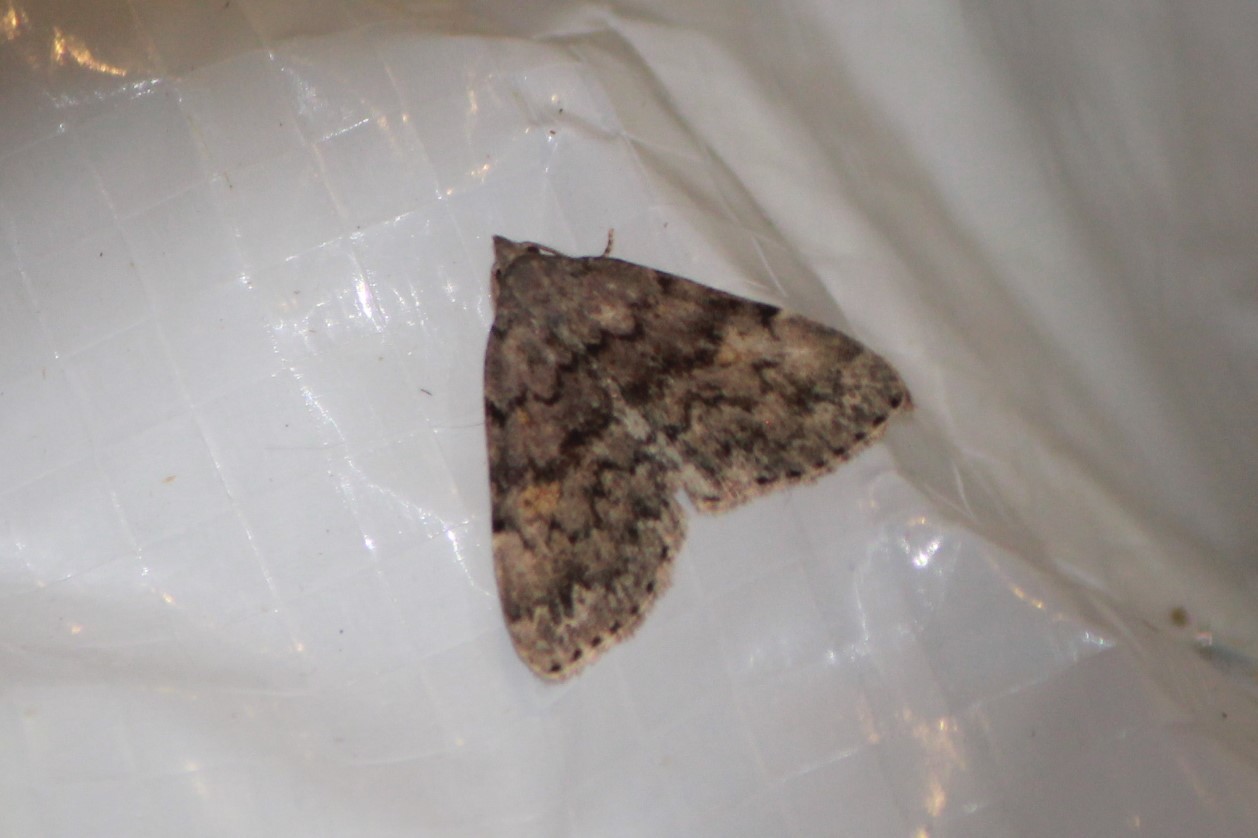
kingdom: Animalia
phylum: Arthropoda
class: Insecta
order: Lepidoptera
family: Erebidae
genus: Idia
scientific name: Idia aemula
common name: Common idia moth
